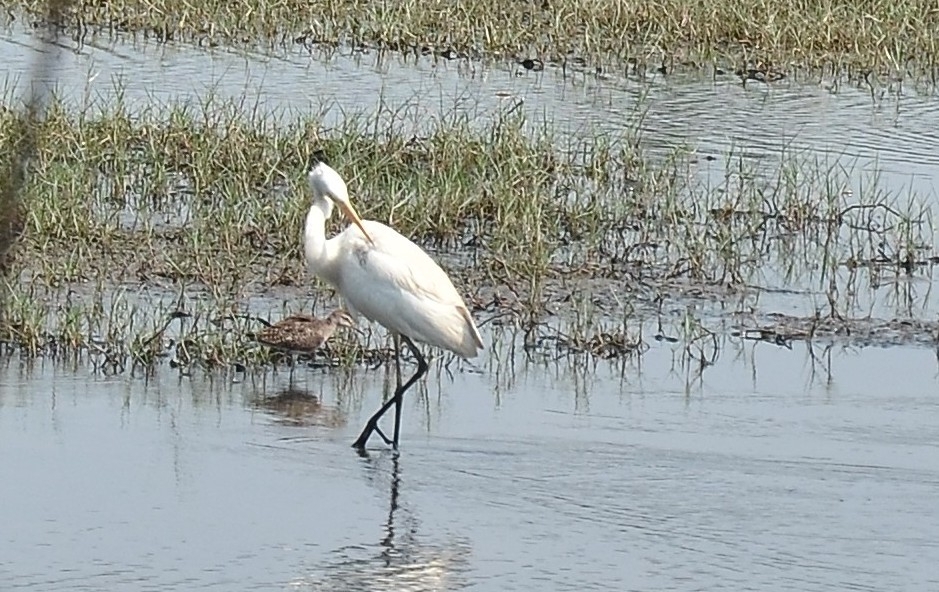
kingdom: Animalia
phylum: Chordata
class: Aves
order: Pelecaniformes
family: Ardeidae
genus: Egretta
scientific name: Egretta intermedia
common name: Intermediate egret
